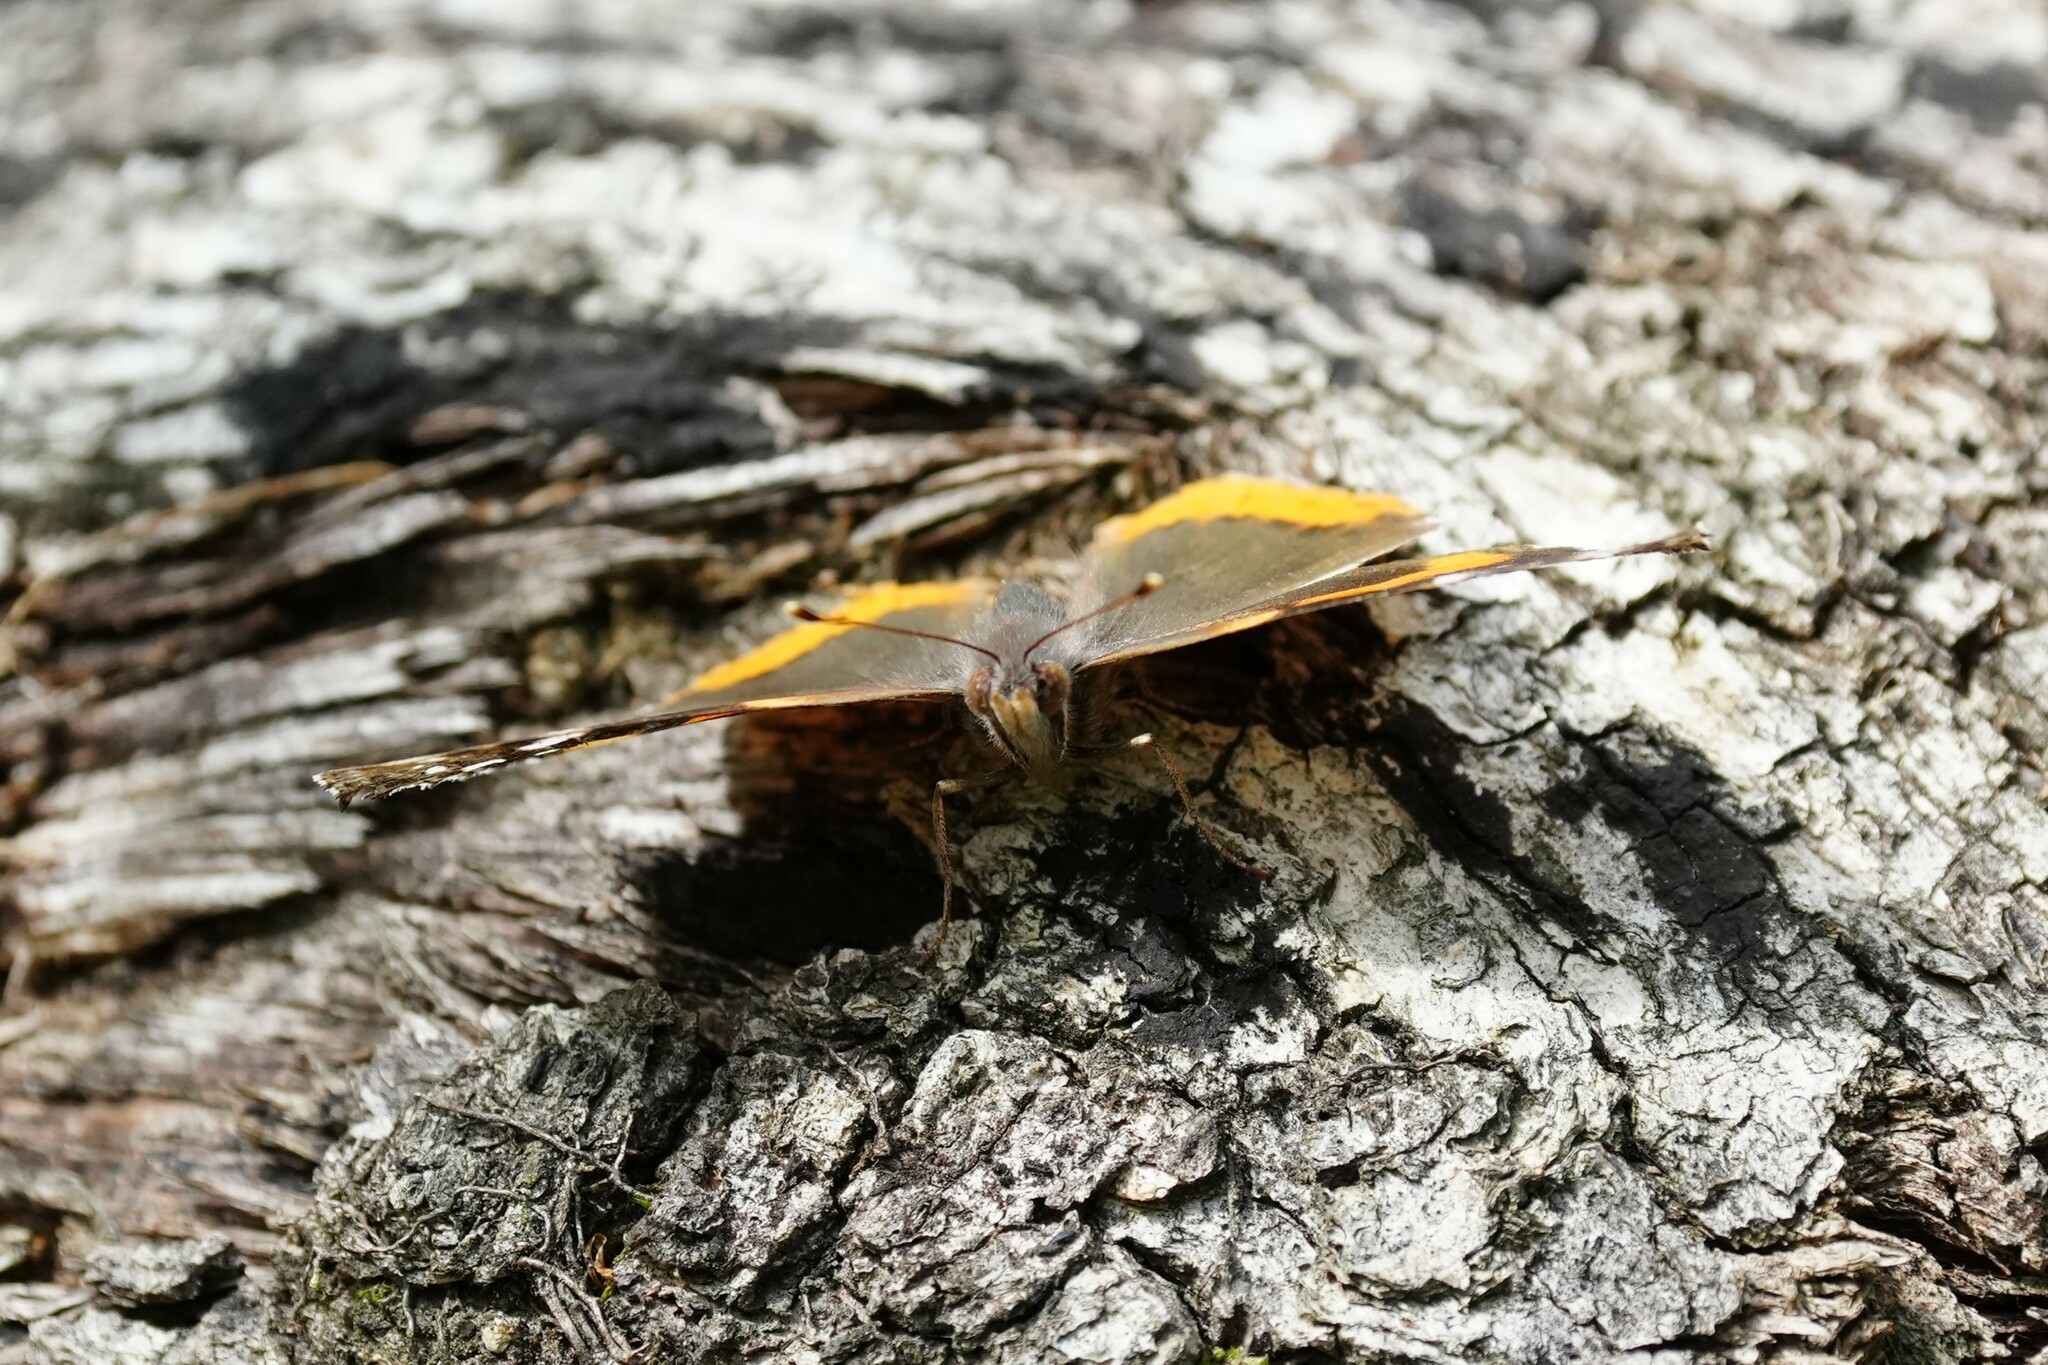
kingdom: Animalia
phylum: Arthropoda
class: Insecta
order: Lepidoptera
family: Nymphalidae
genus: Vanessa
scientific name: Vanessa atalanta
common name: Red admiral
